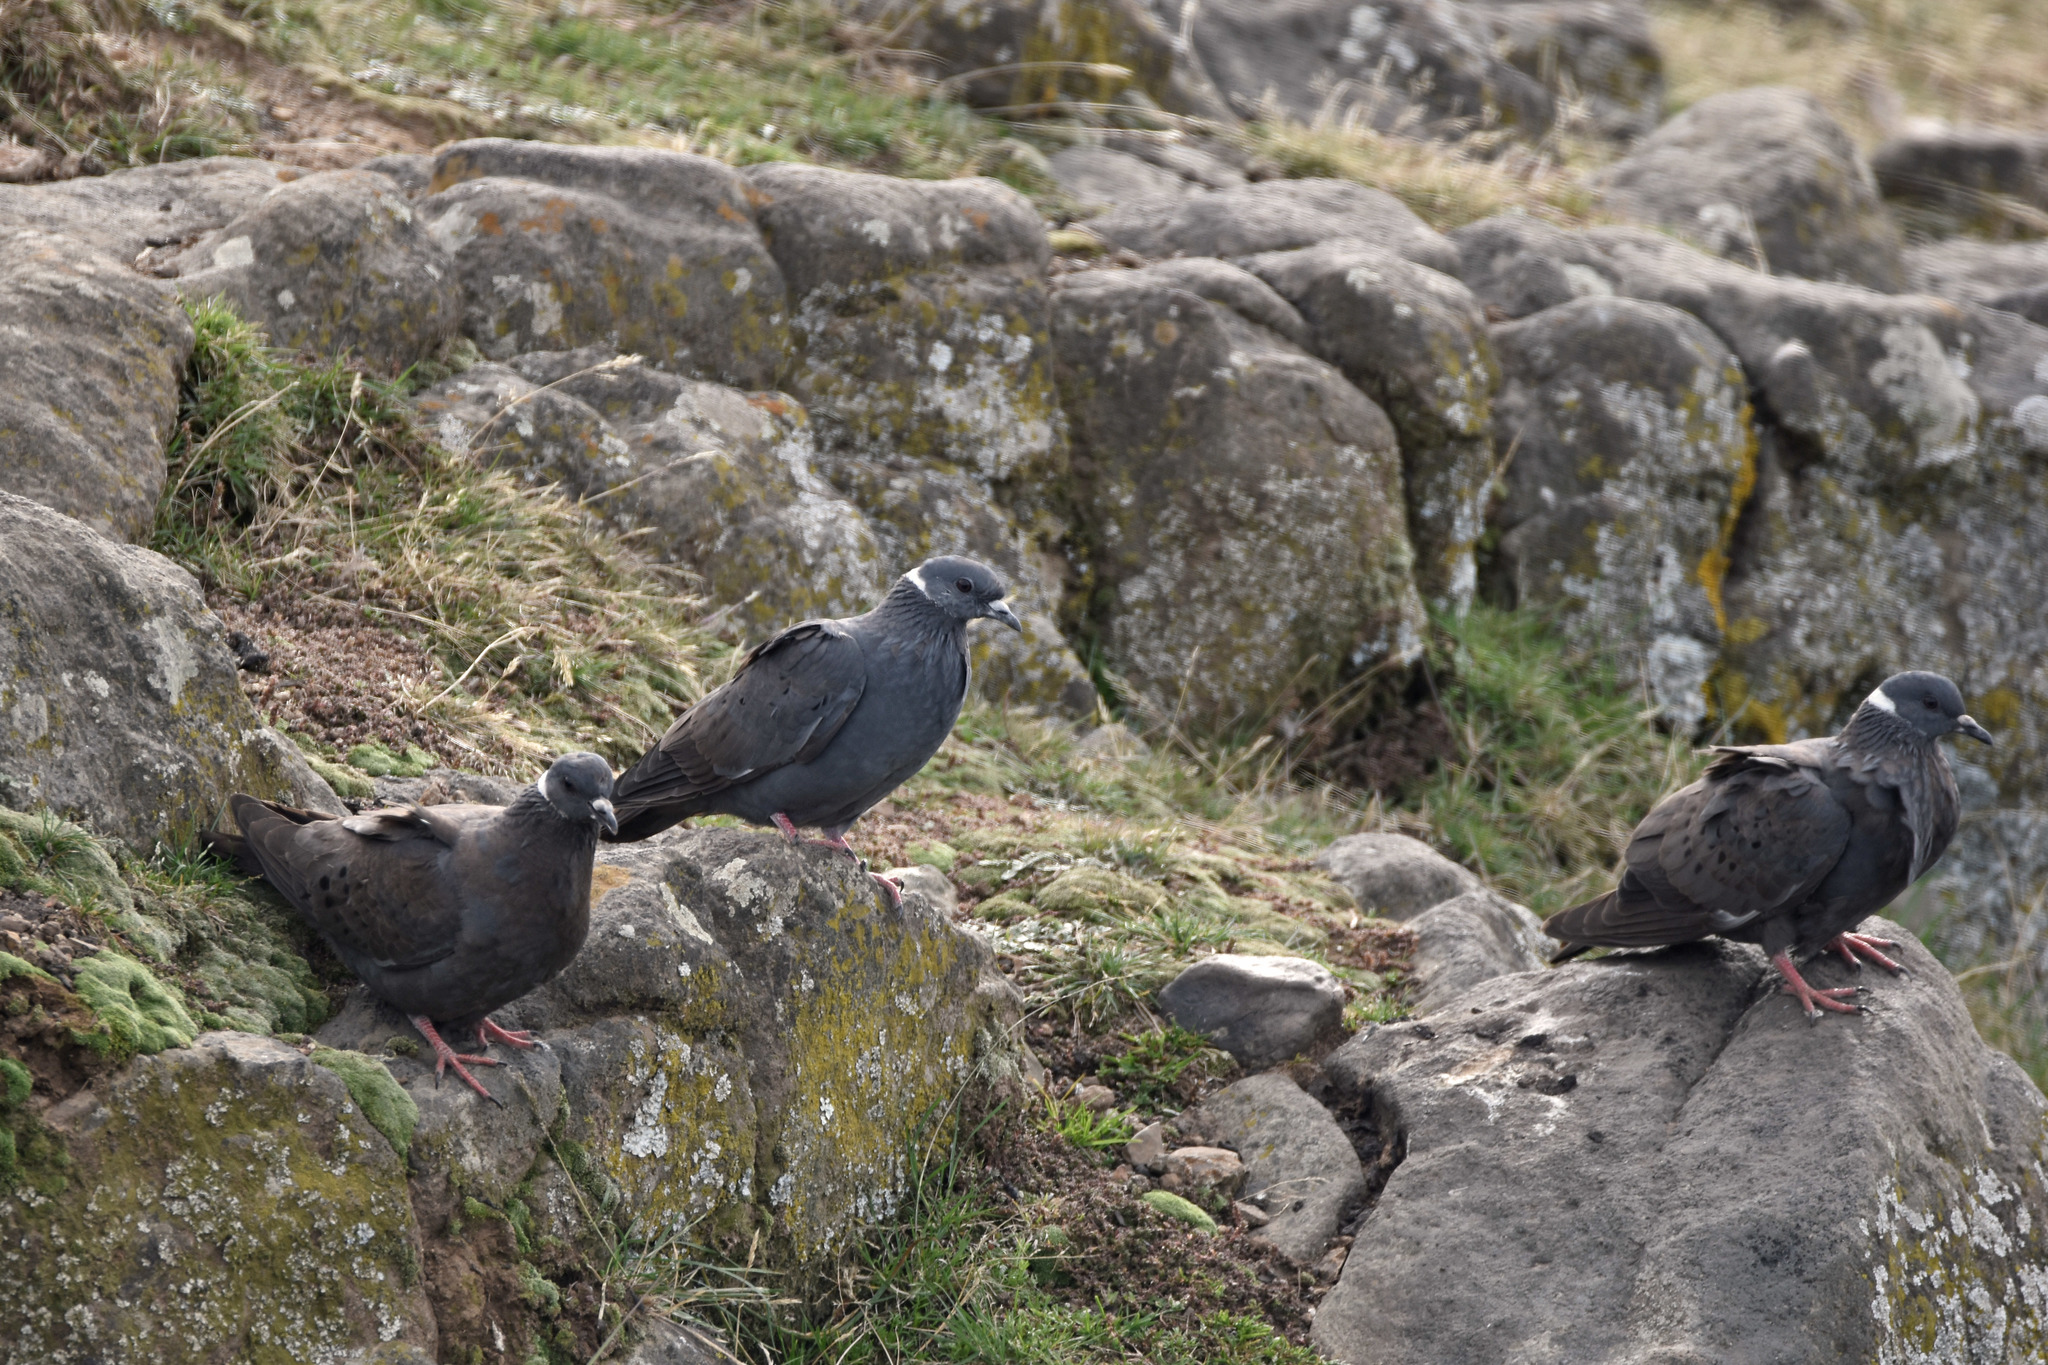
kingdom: Animalia
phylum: Chordata
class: Aves
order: Columbiformes
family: Columbidae
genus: Columba
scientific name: Columba albitorques
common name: White-collared pigeon
